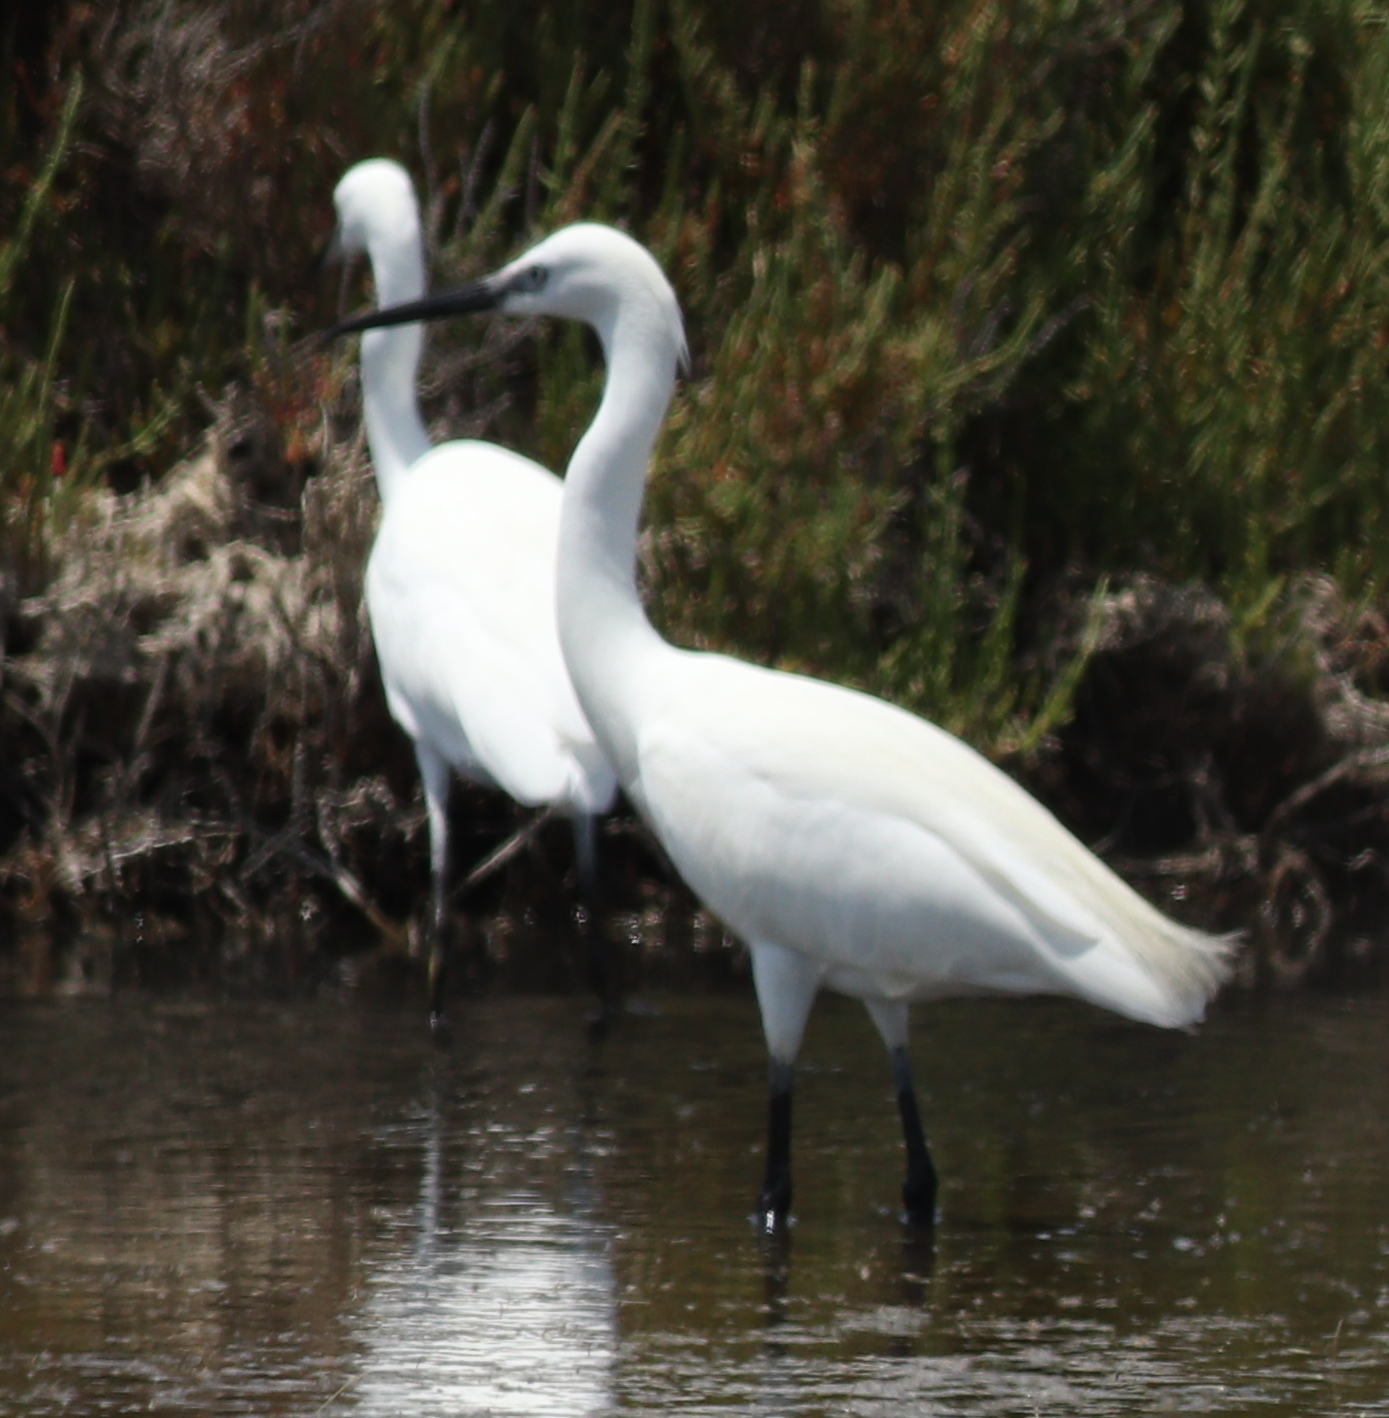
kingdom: Animalia
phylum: Chordata
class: Aves
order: Pelecaniformes
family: Ardeidae
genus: Egretta
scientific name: Egretta garzetta
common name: Little egret
